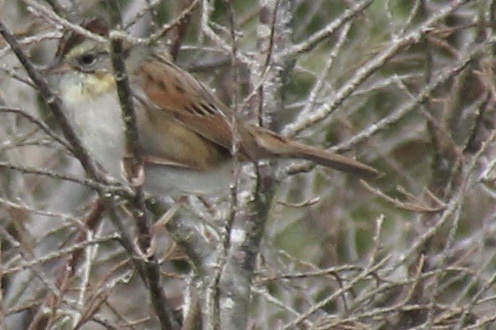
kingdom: Animalia
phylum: Chordata
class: Aves
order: Passeriformes
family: Passerellidae
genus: Melospiza
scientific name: Melospiza georgiana
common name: Swamp sparrow
